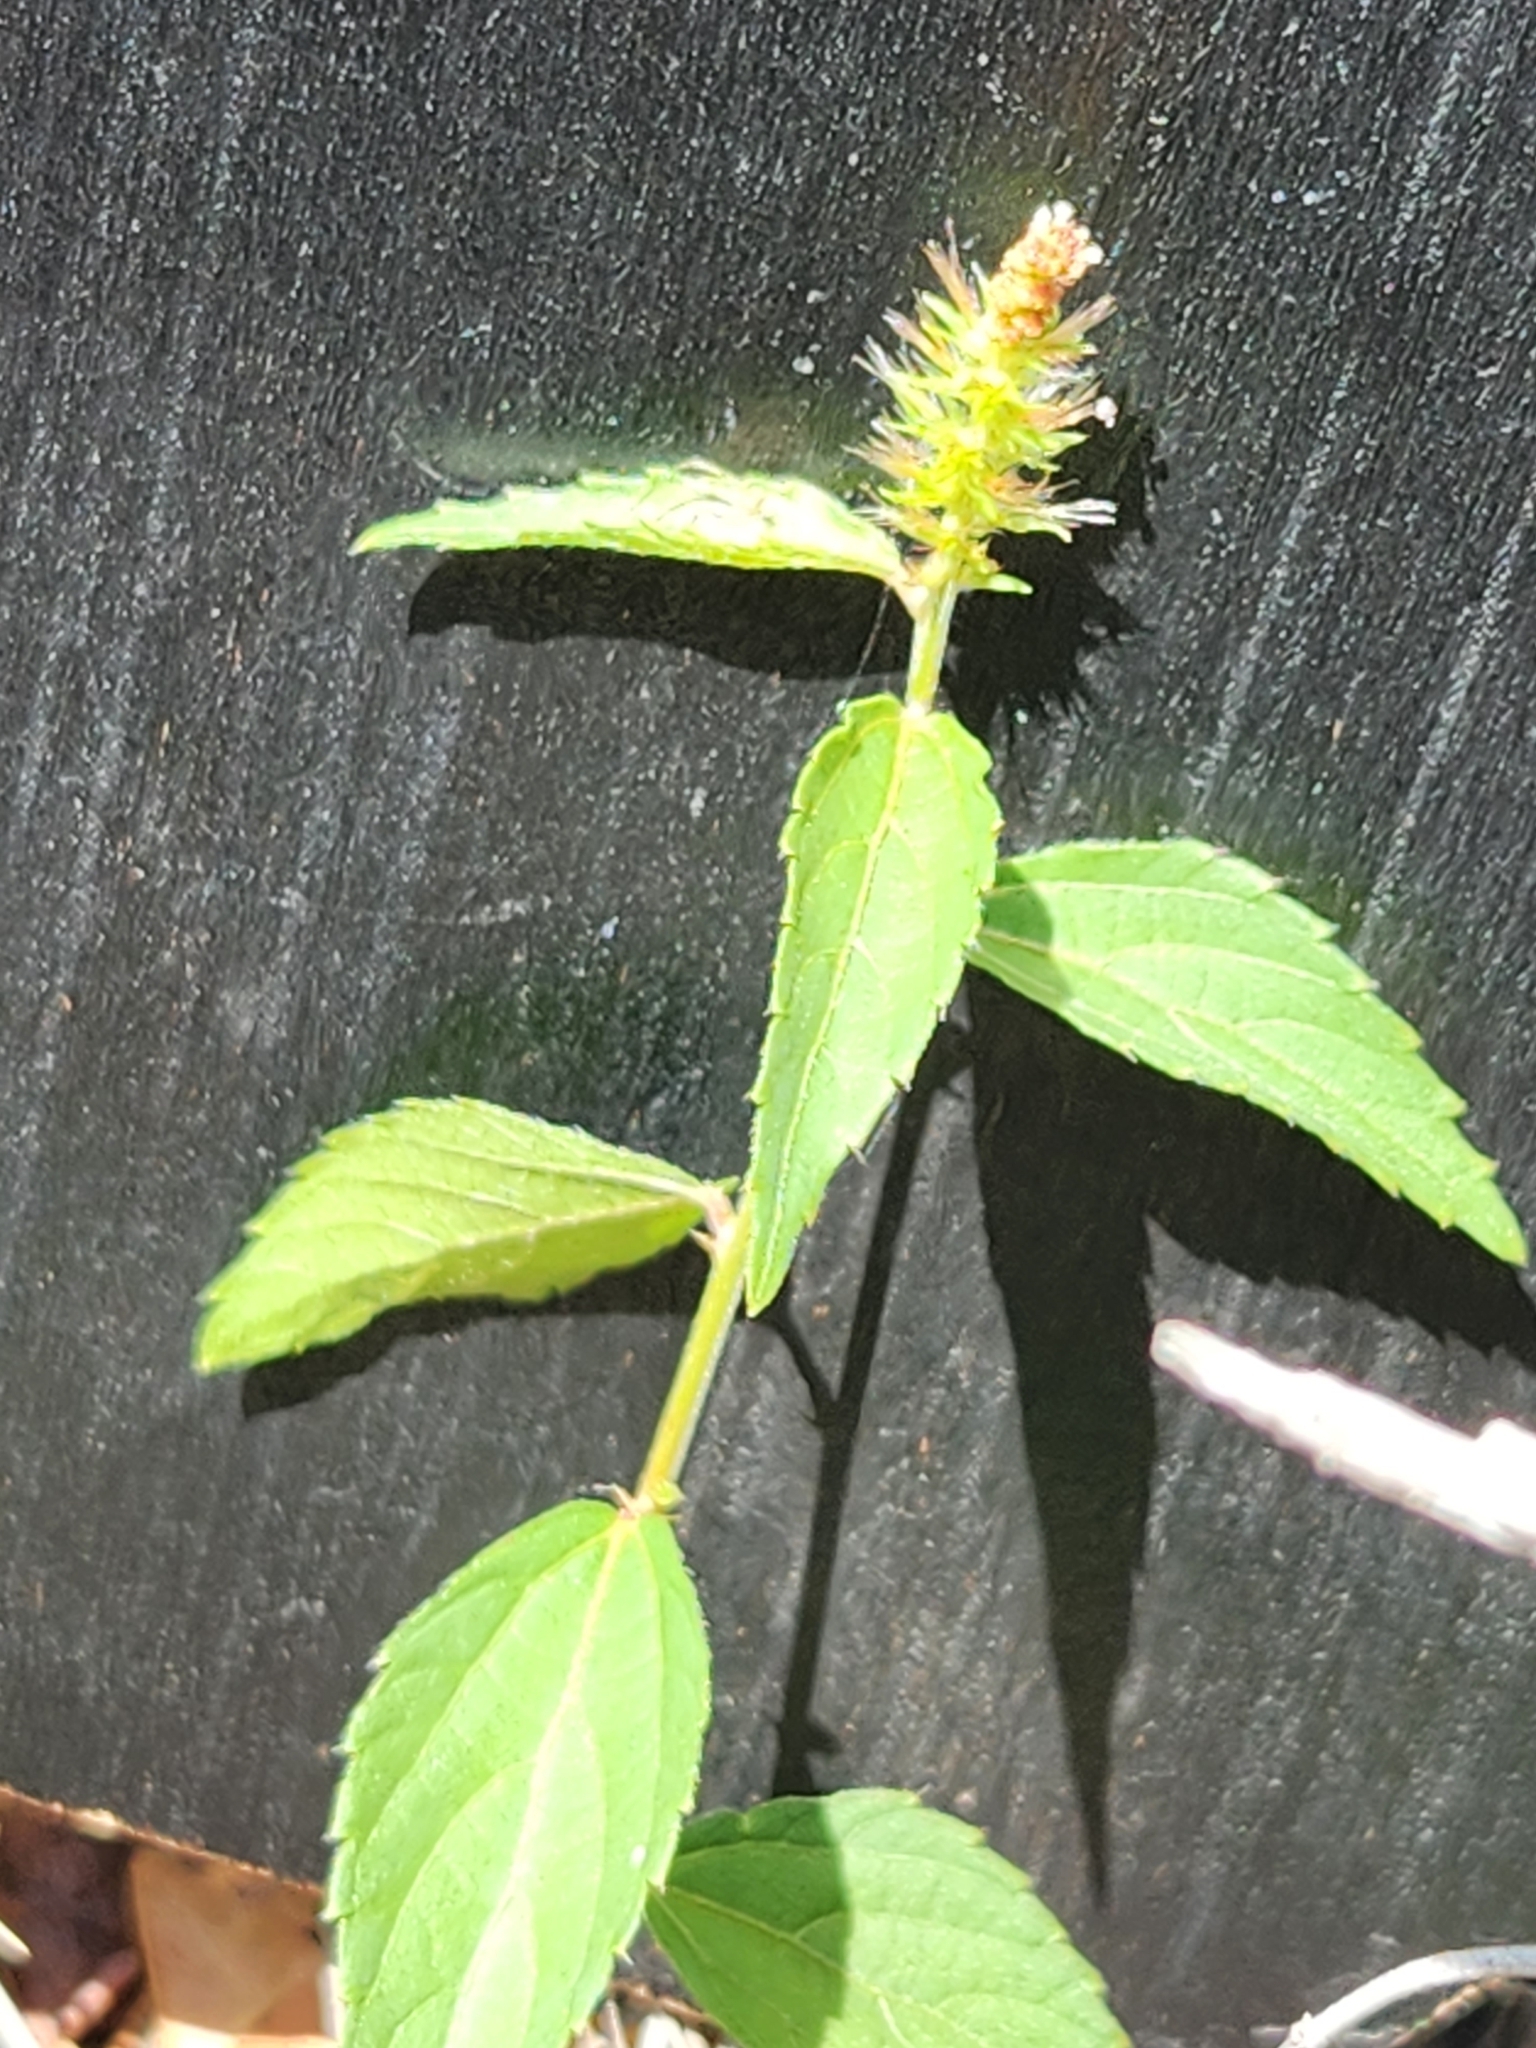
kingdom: Plantae
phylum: Tracheophyta
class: Magnoliopsida
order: Malpighiales
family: Euphorbiaceae
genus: Acalypha
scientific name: Acalypha phleoides
